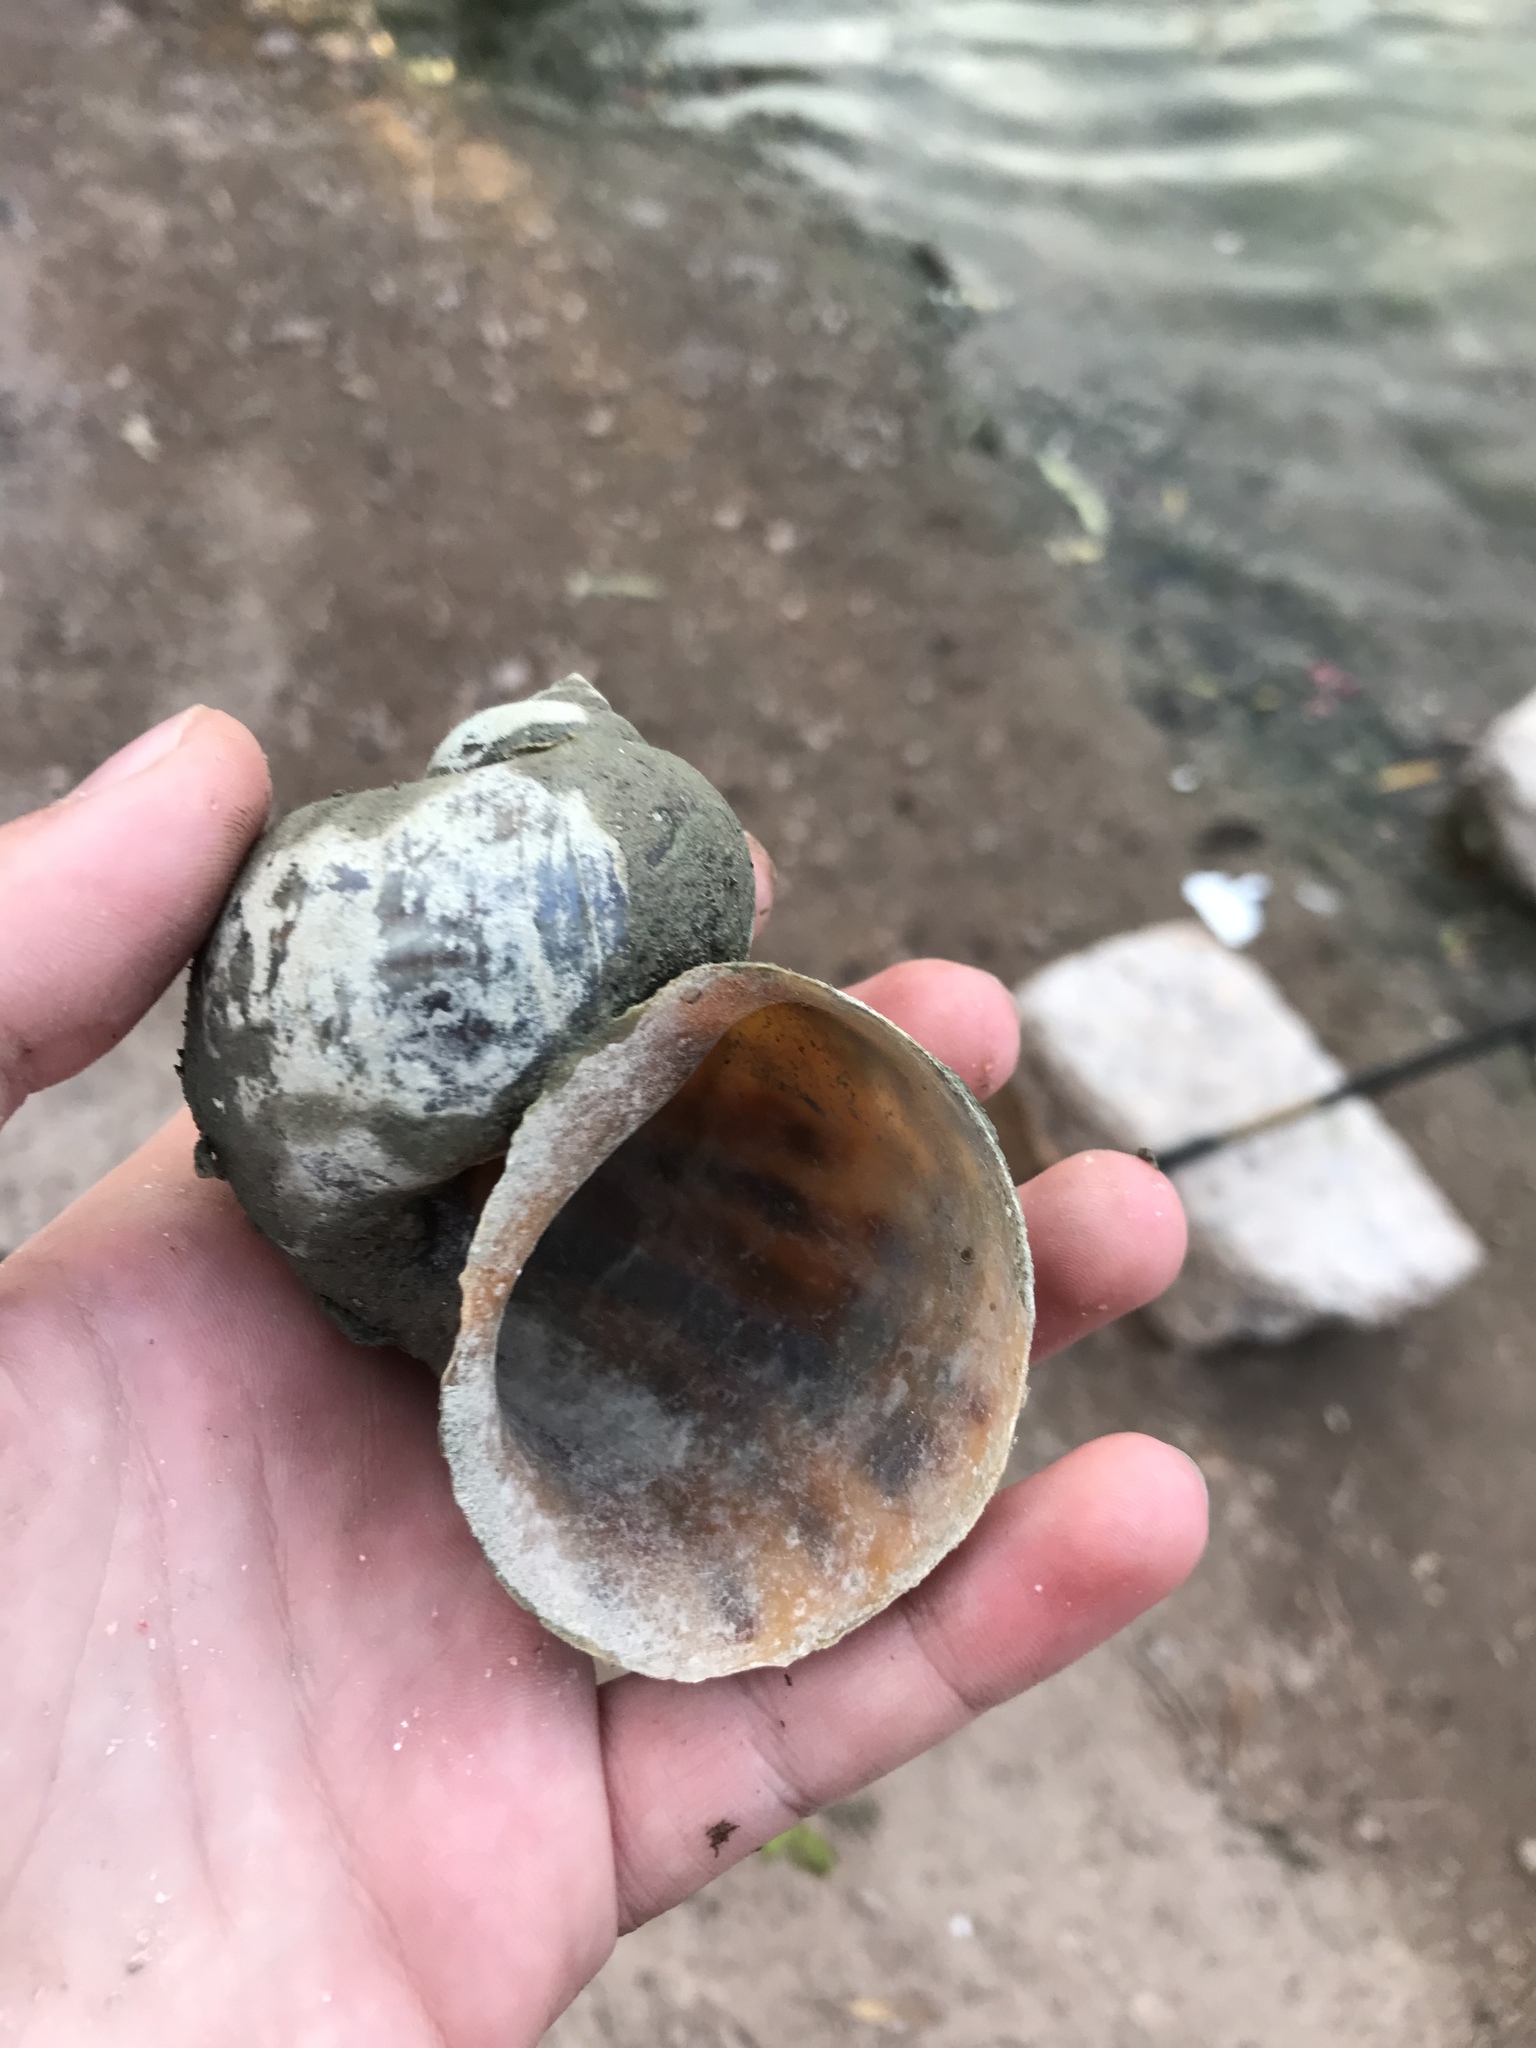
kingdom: Animalia
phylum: Mollusca
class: Gastropoda
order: Architaenioglossa
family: Ampullariidae
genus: Pomacea
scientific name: Pomacea maculata
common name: Giant applesnail
